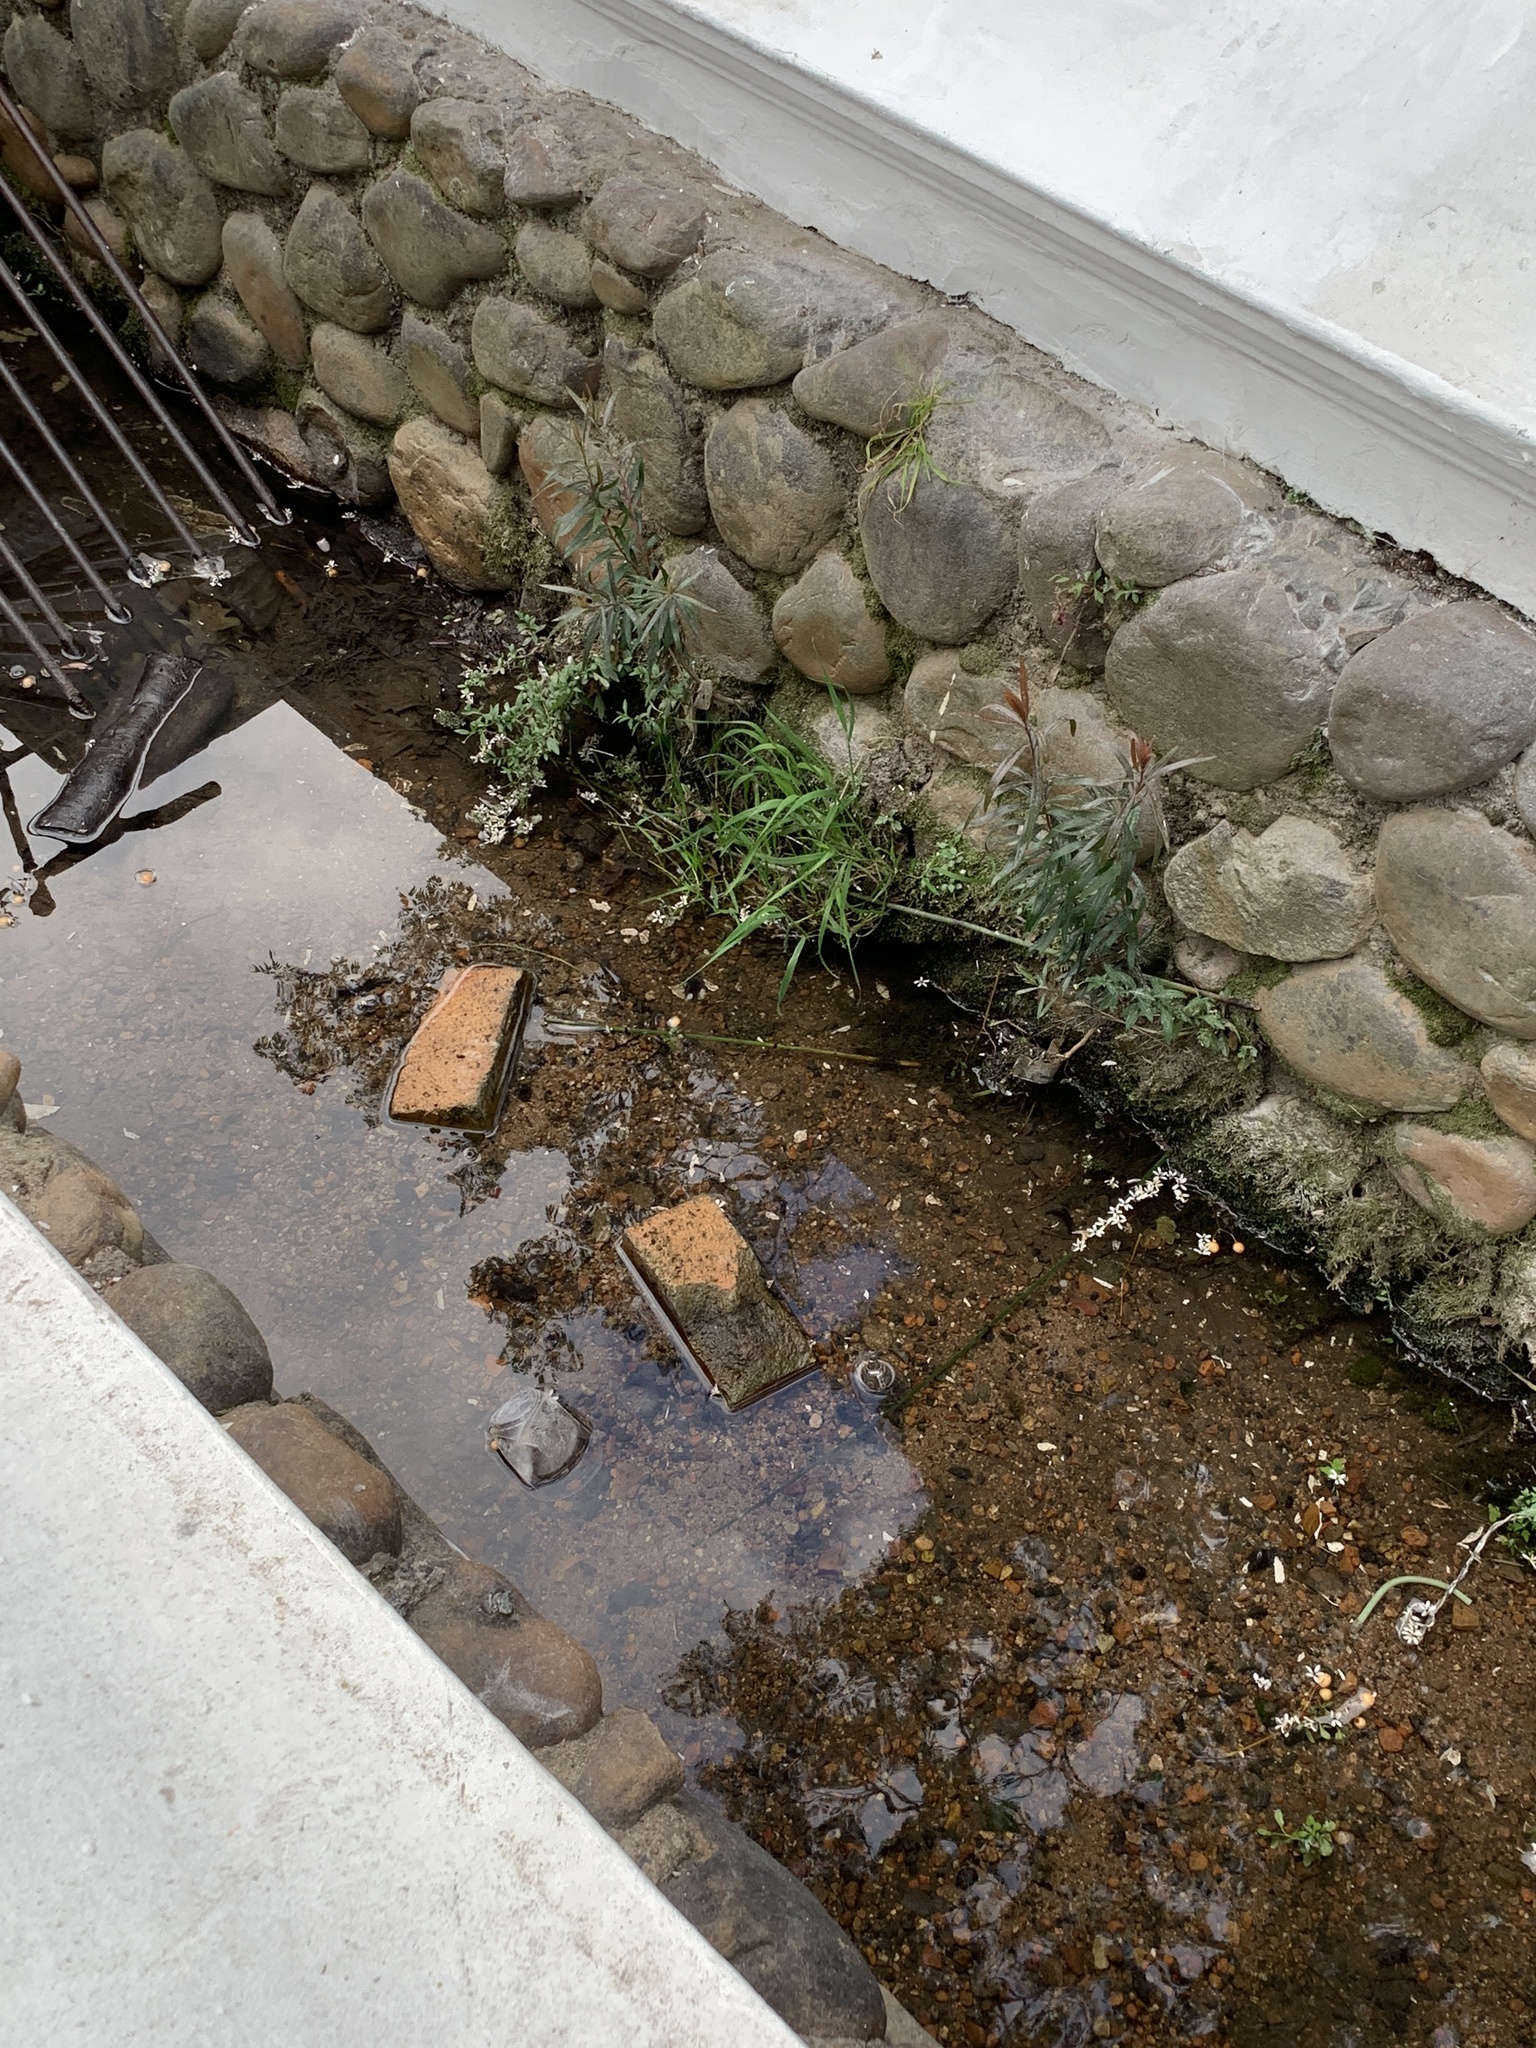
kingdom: Plantae
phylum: Tracheophyta
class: Magnoliopsida
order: Myrtales
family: Myrtaceae
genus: Callistemon
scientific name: Callistemon viminalis
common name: Drooping bottlebrush
